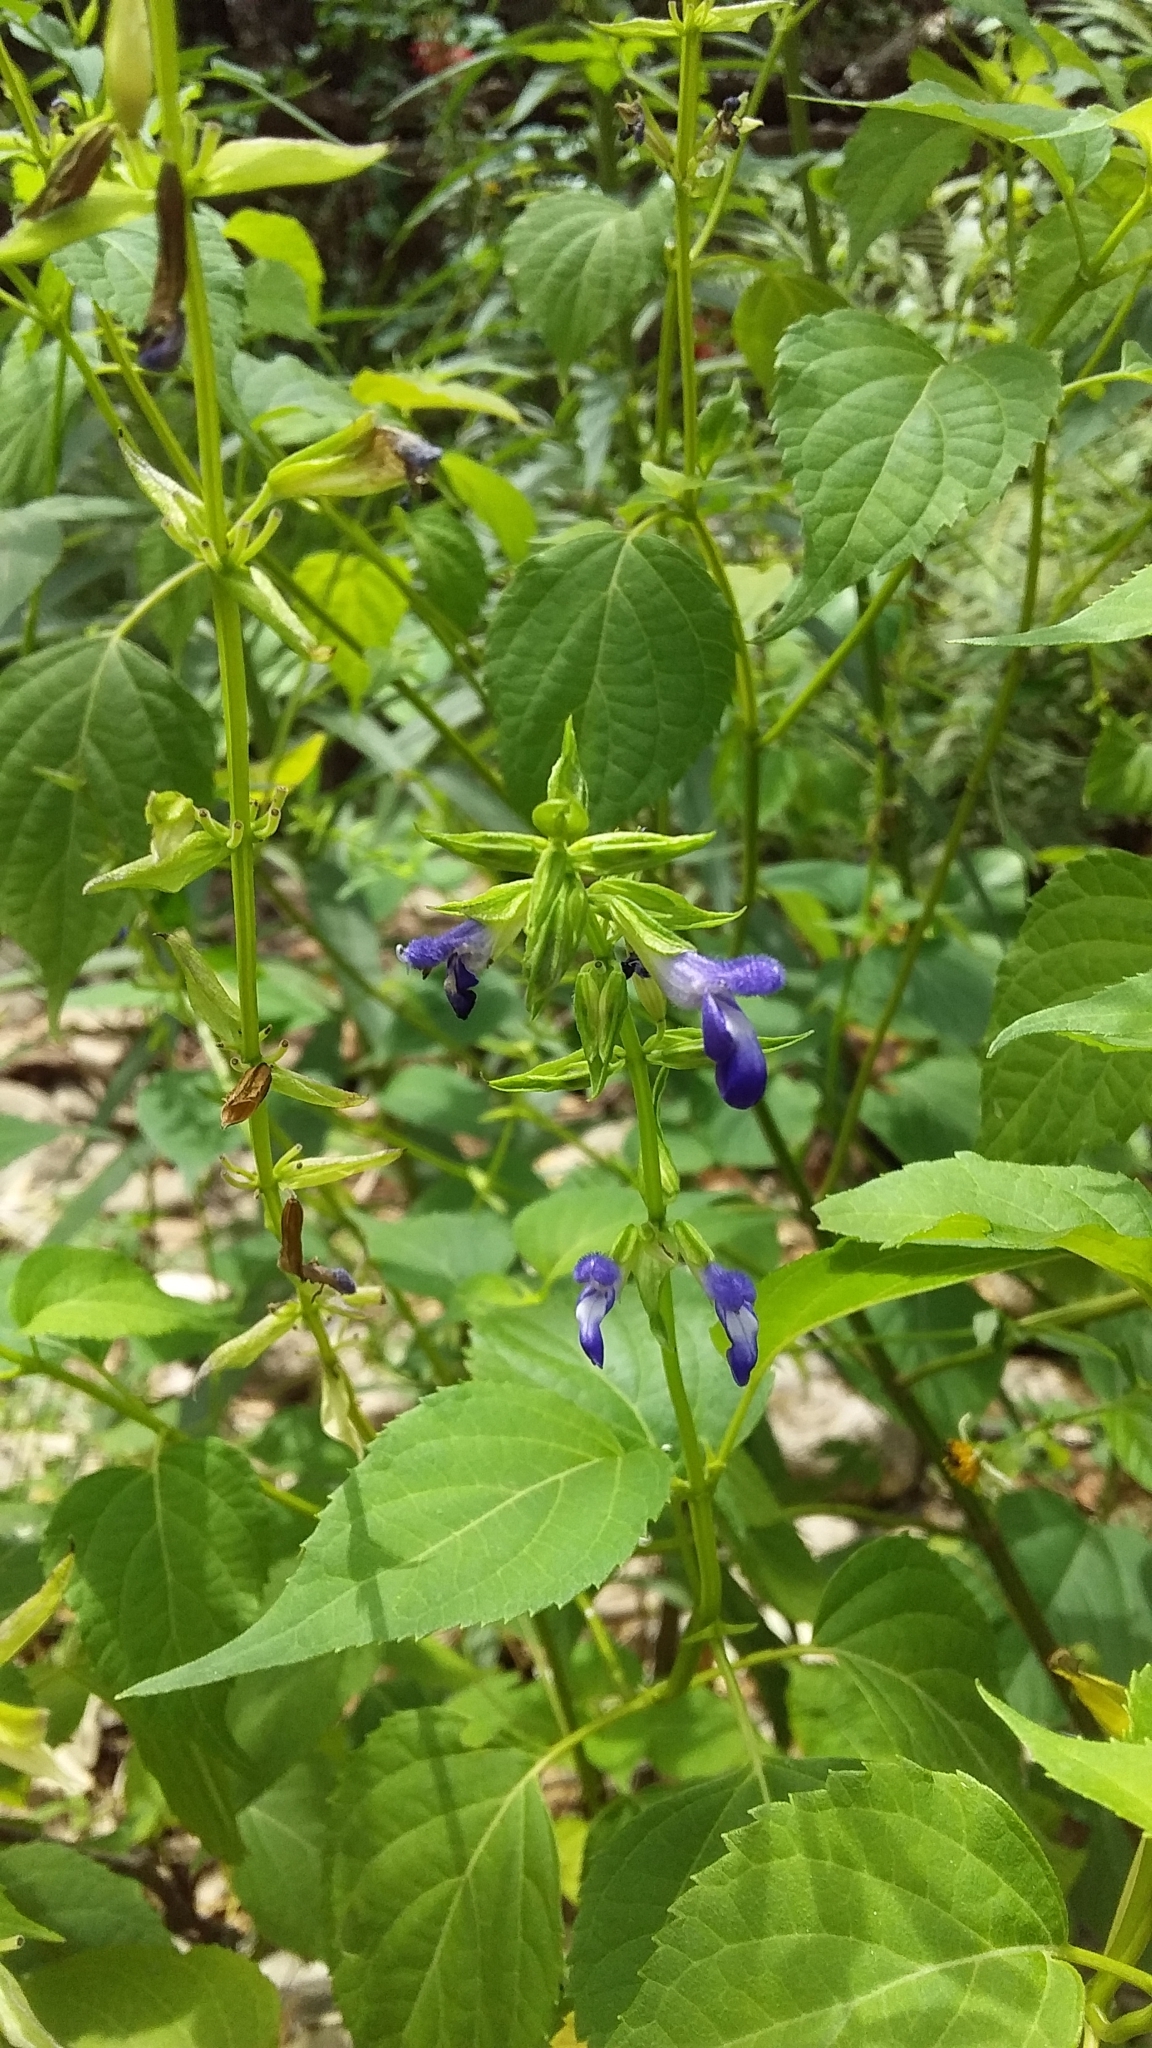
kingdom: Plantae
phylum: Tracheophyta
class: Magnoliopsida
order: Lamiales
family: Lamiaceae
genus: Salvia
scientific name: Salvia caudata
